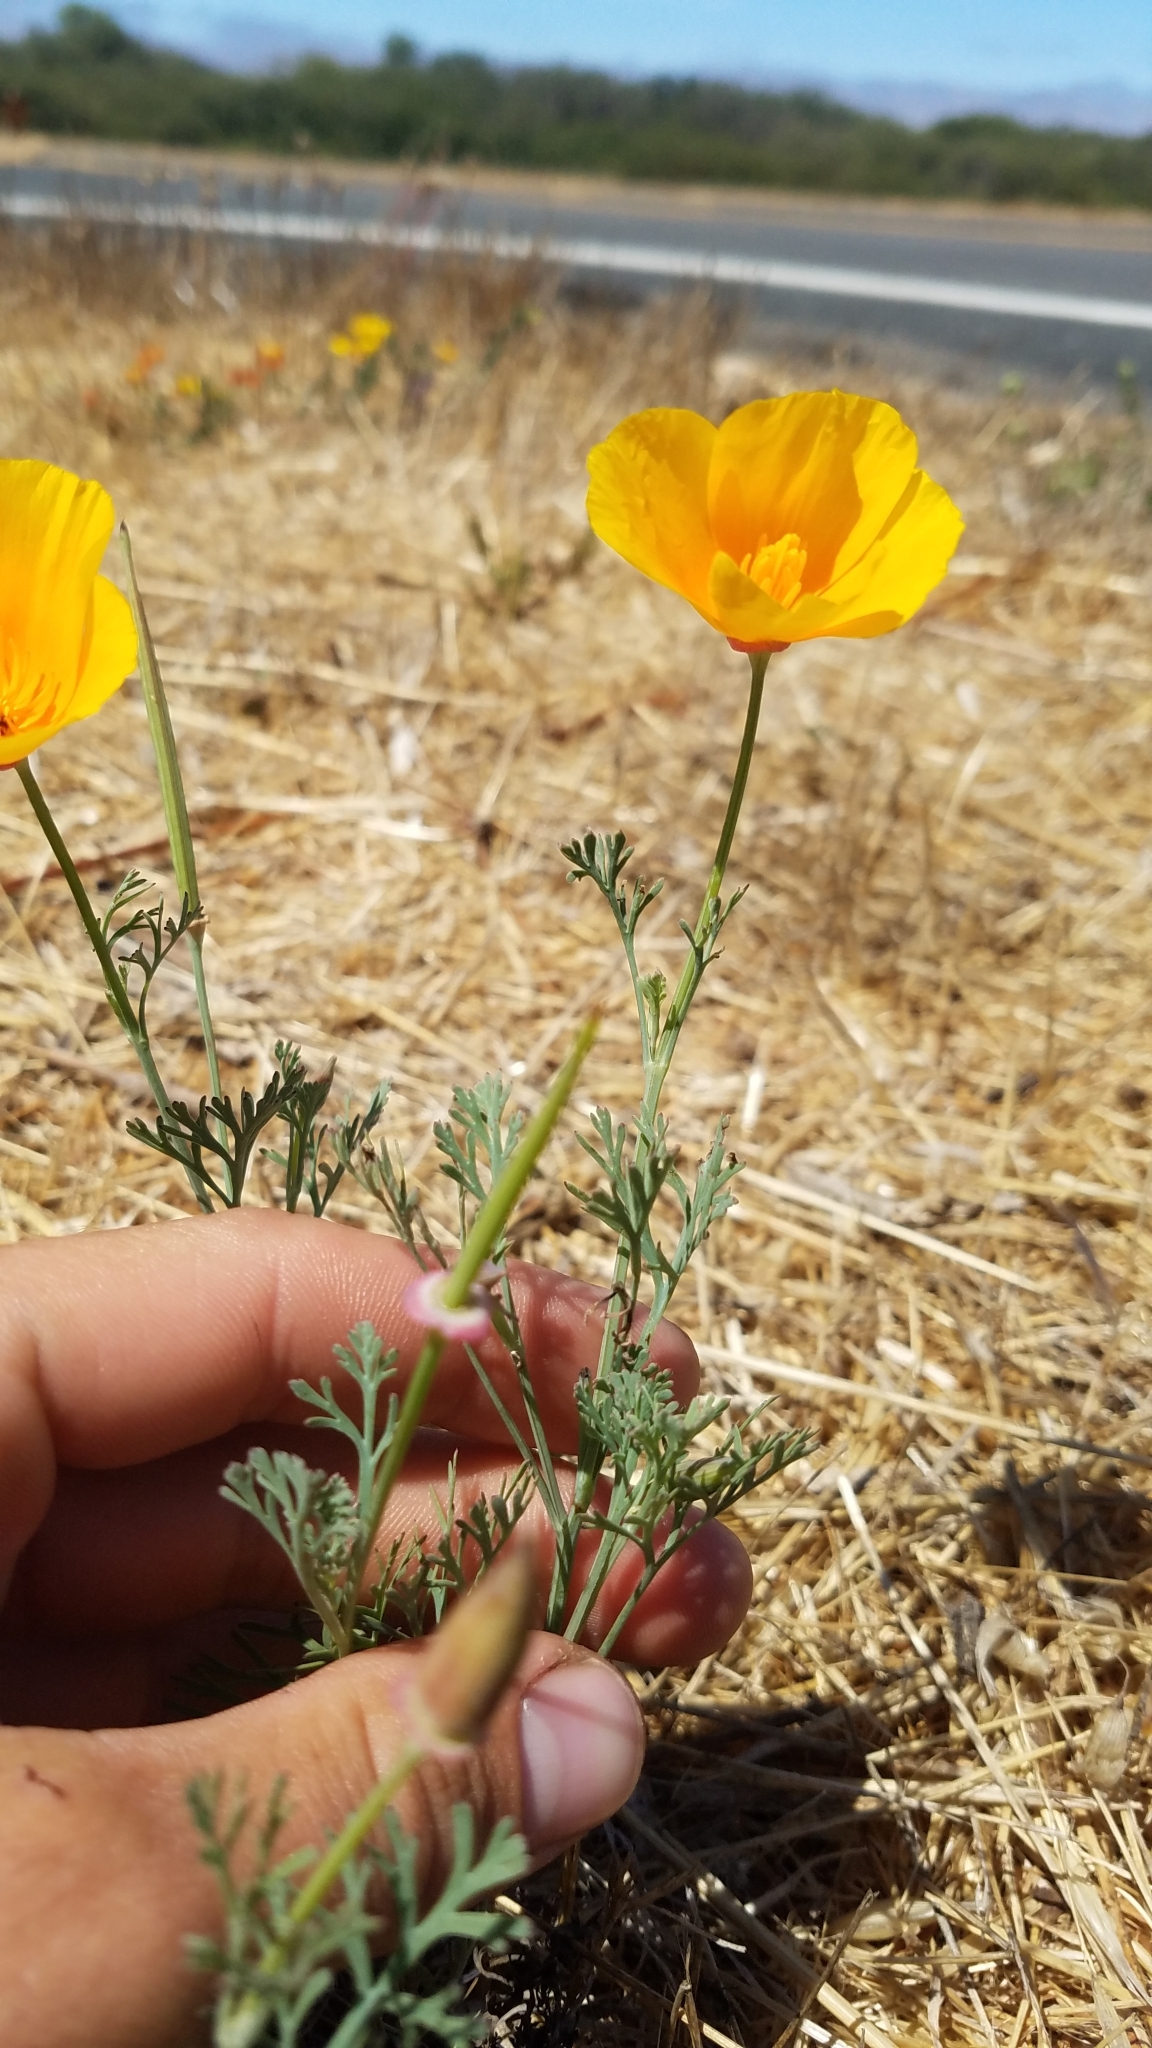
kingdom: Plantae
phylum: Tracheophyta
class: Magnoliopsida
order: Ranunculales
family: Papaveraceae
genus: Eschscholzia
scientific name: Eschscholzia californica
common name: California poppy
